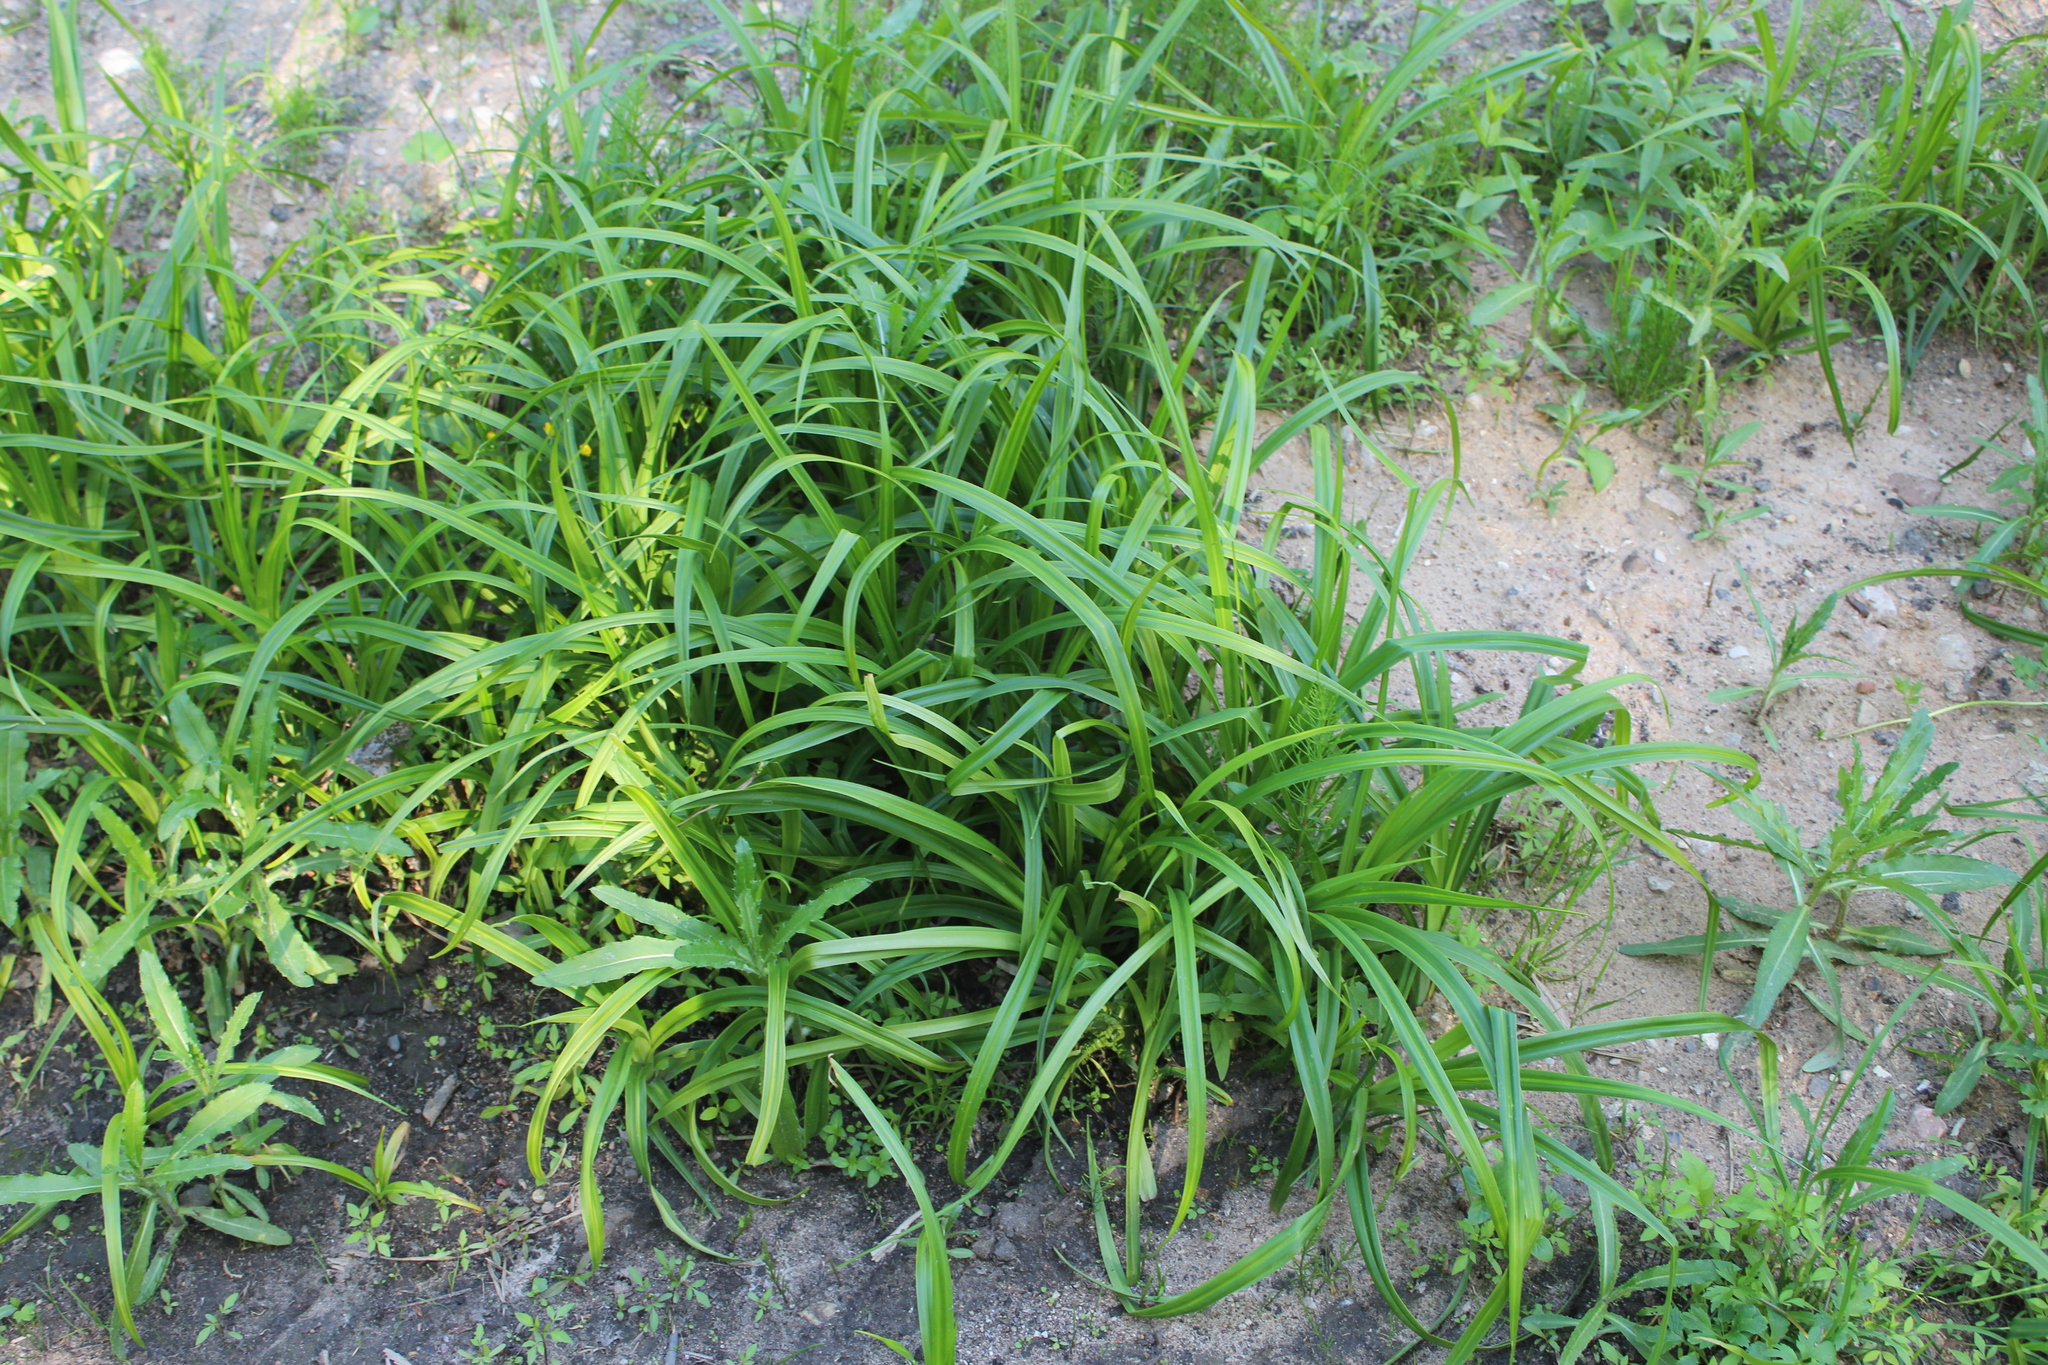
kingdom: Plantae
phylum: Tracheophyta
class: Liliopsida
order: Poales
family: Cyperaceae
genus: Scirpus
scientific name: Scirpus sylvaticus
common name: Wood club-rush
